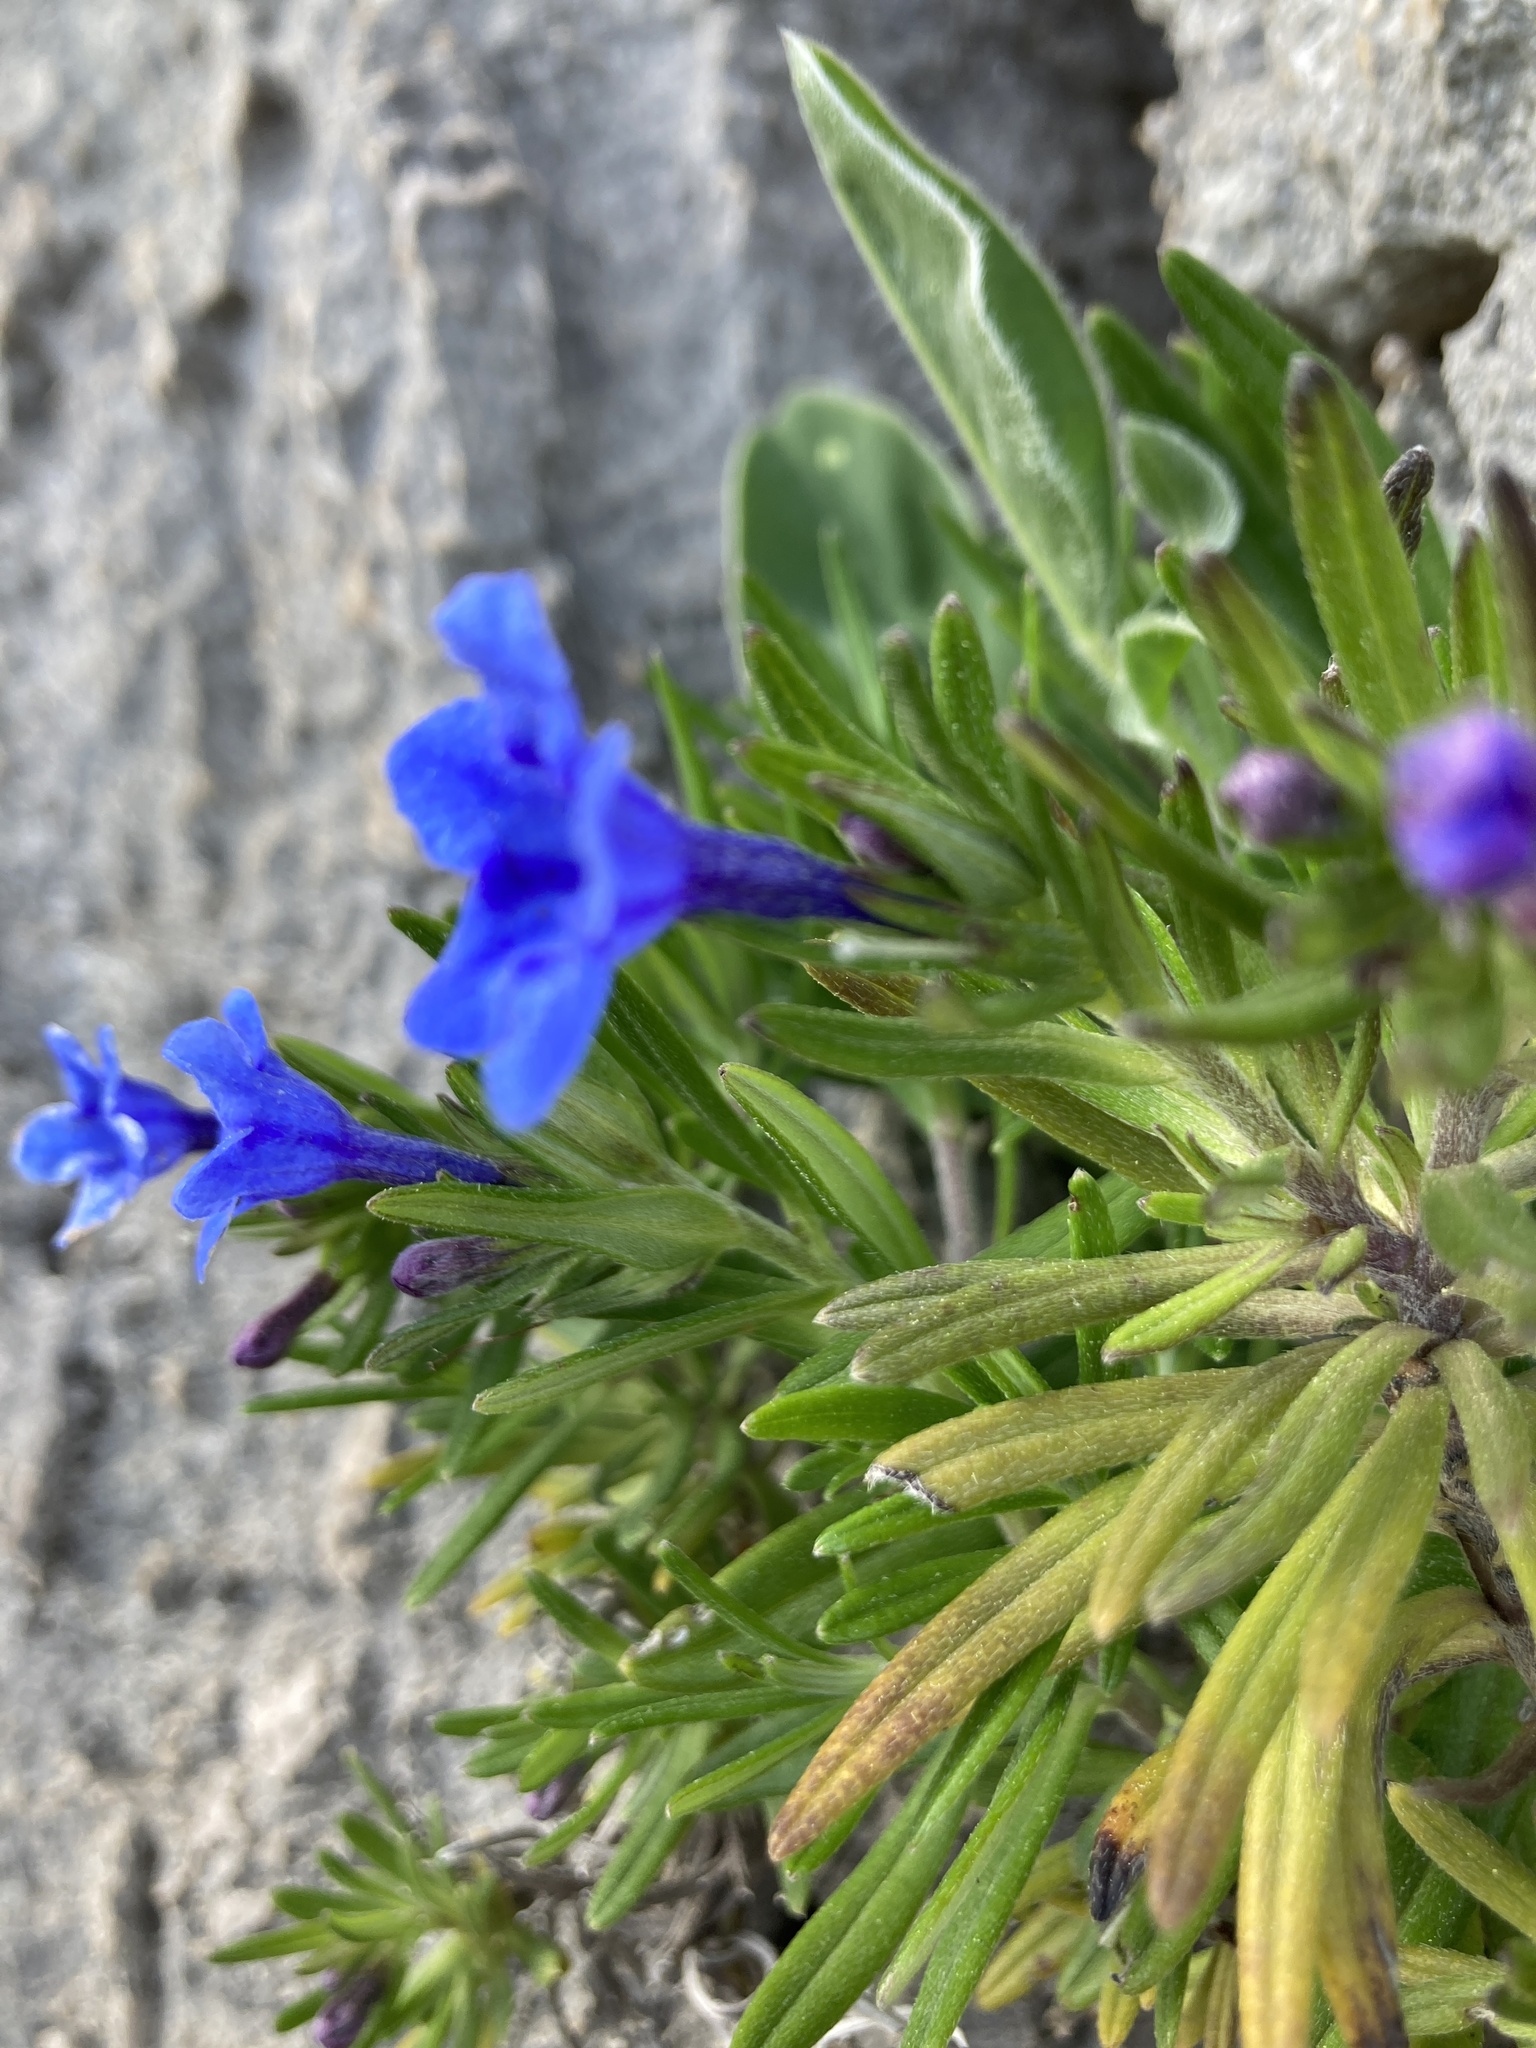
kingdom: Plantae
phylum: Tracheophyta
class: Magnoliopsida
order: Boraginales
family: Boraginaceae
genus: Glandora
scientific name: Glandora rosmarinifolia
